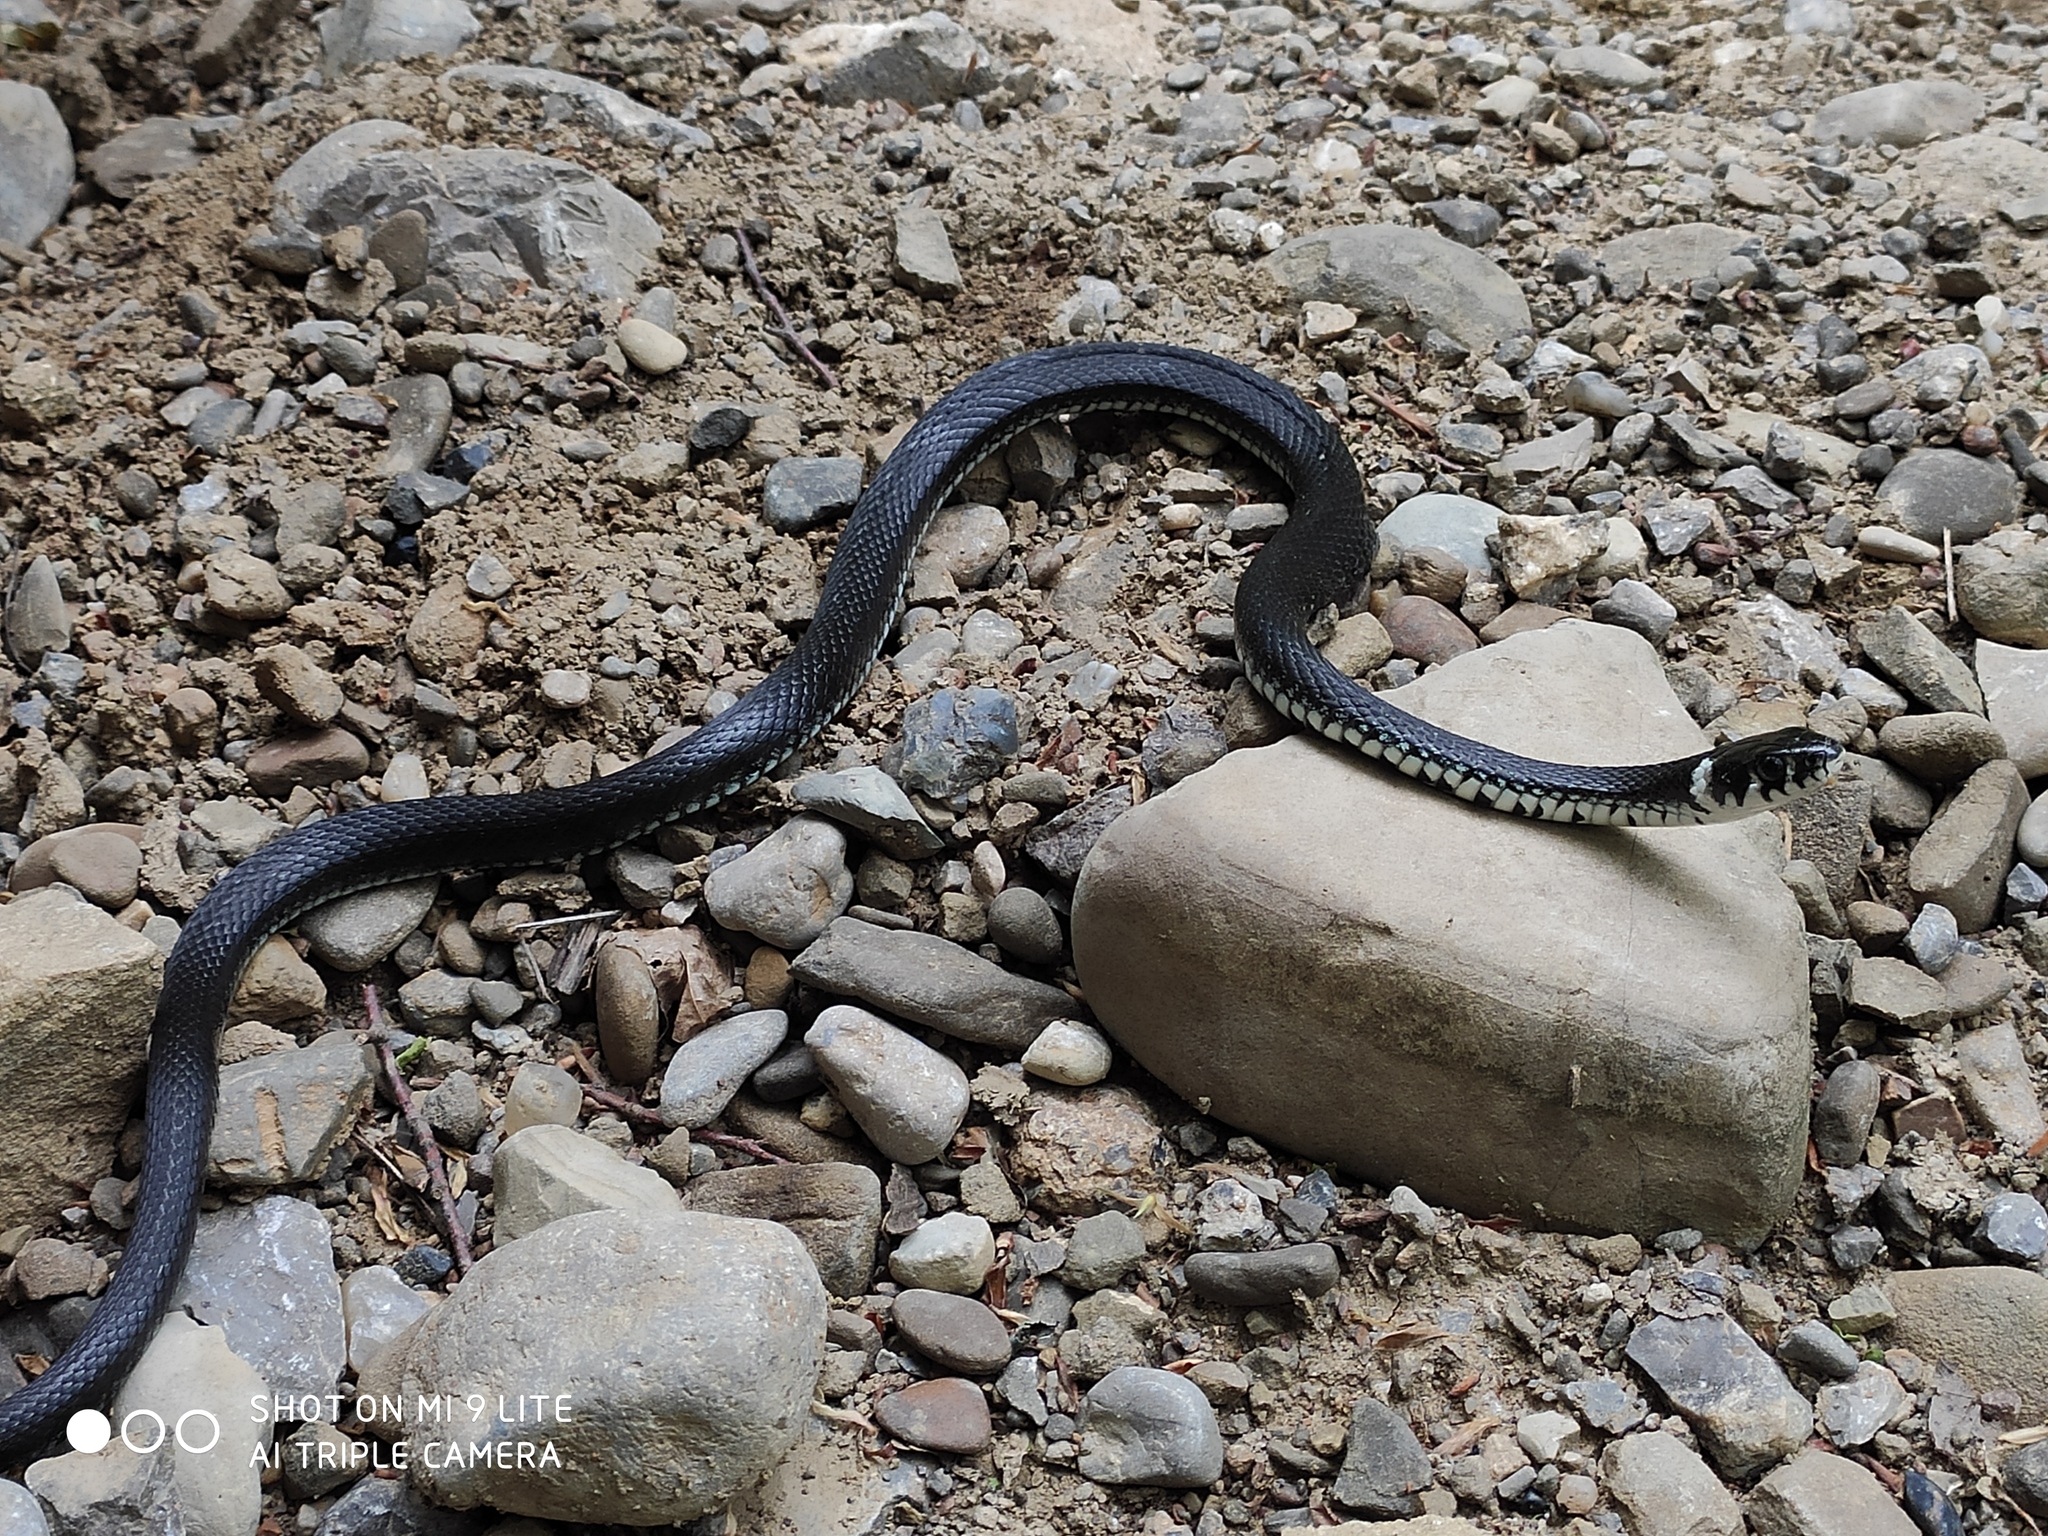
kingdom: Animalia
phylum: Chordata
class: Squamata
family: Colubridae
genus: Natrix
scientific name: Natrix natrix
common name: Grass snake
